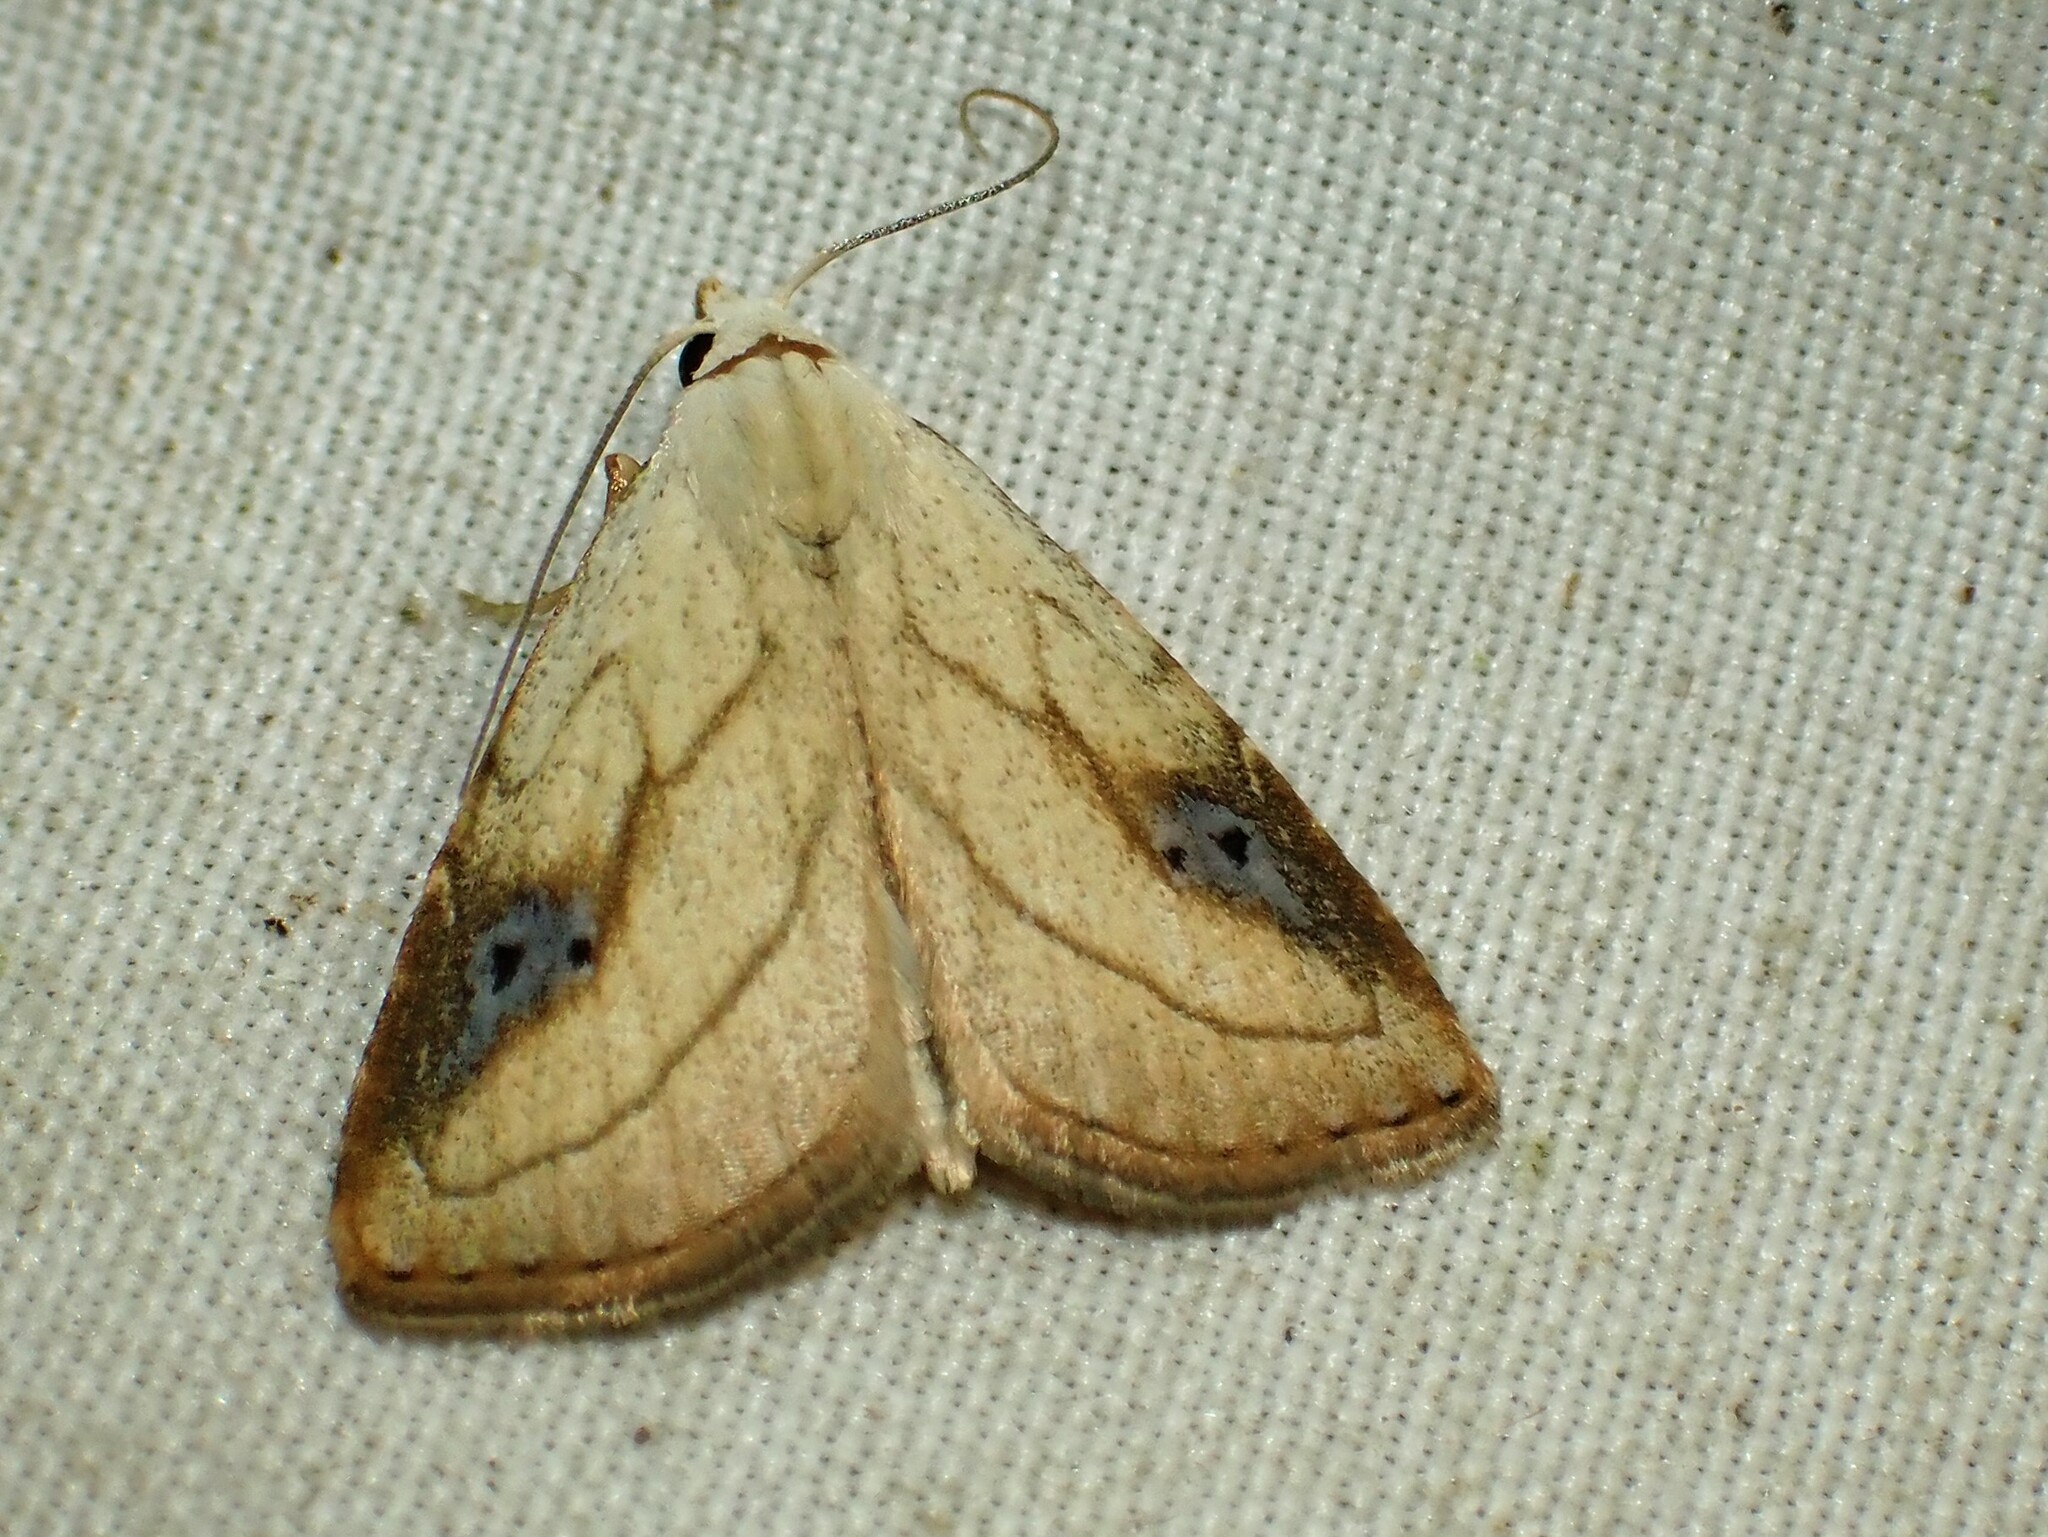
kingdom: Animalia
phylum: Arthropoda
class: Insecta
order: Lepidoptera
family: Erebidae
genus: Rivula
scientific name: Rivula propinqualis
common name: Spotted grass moth
